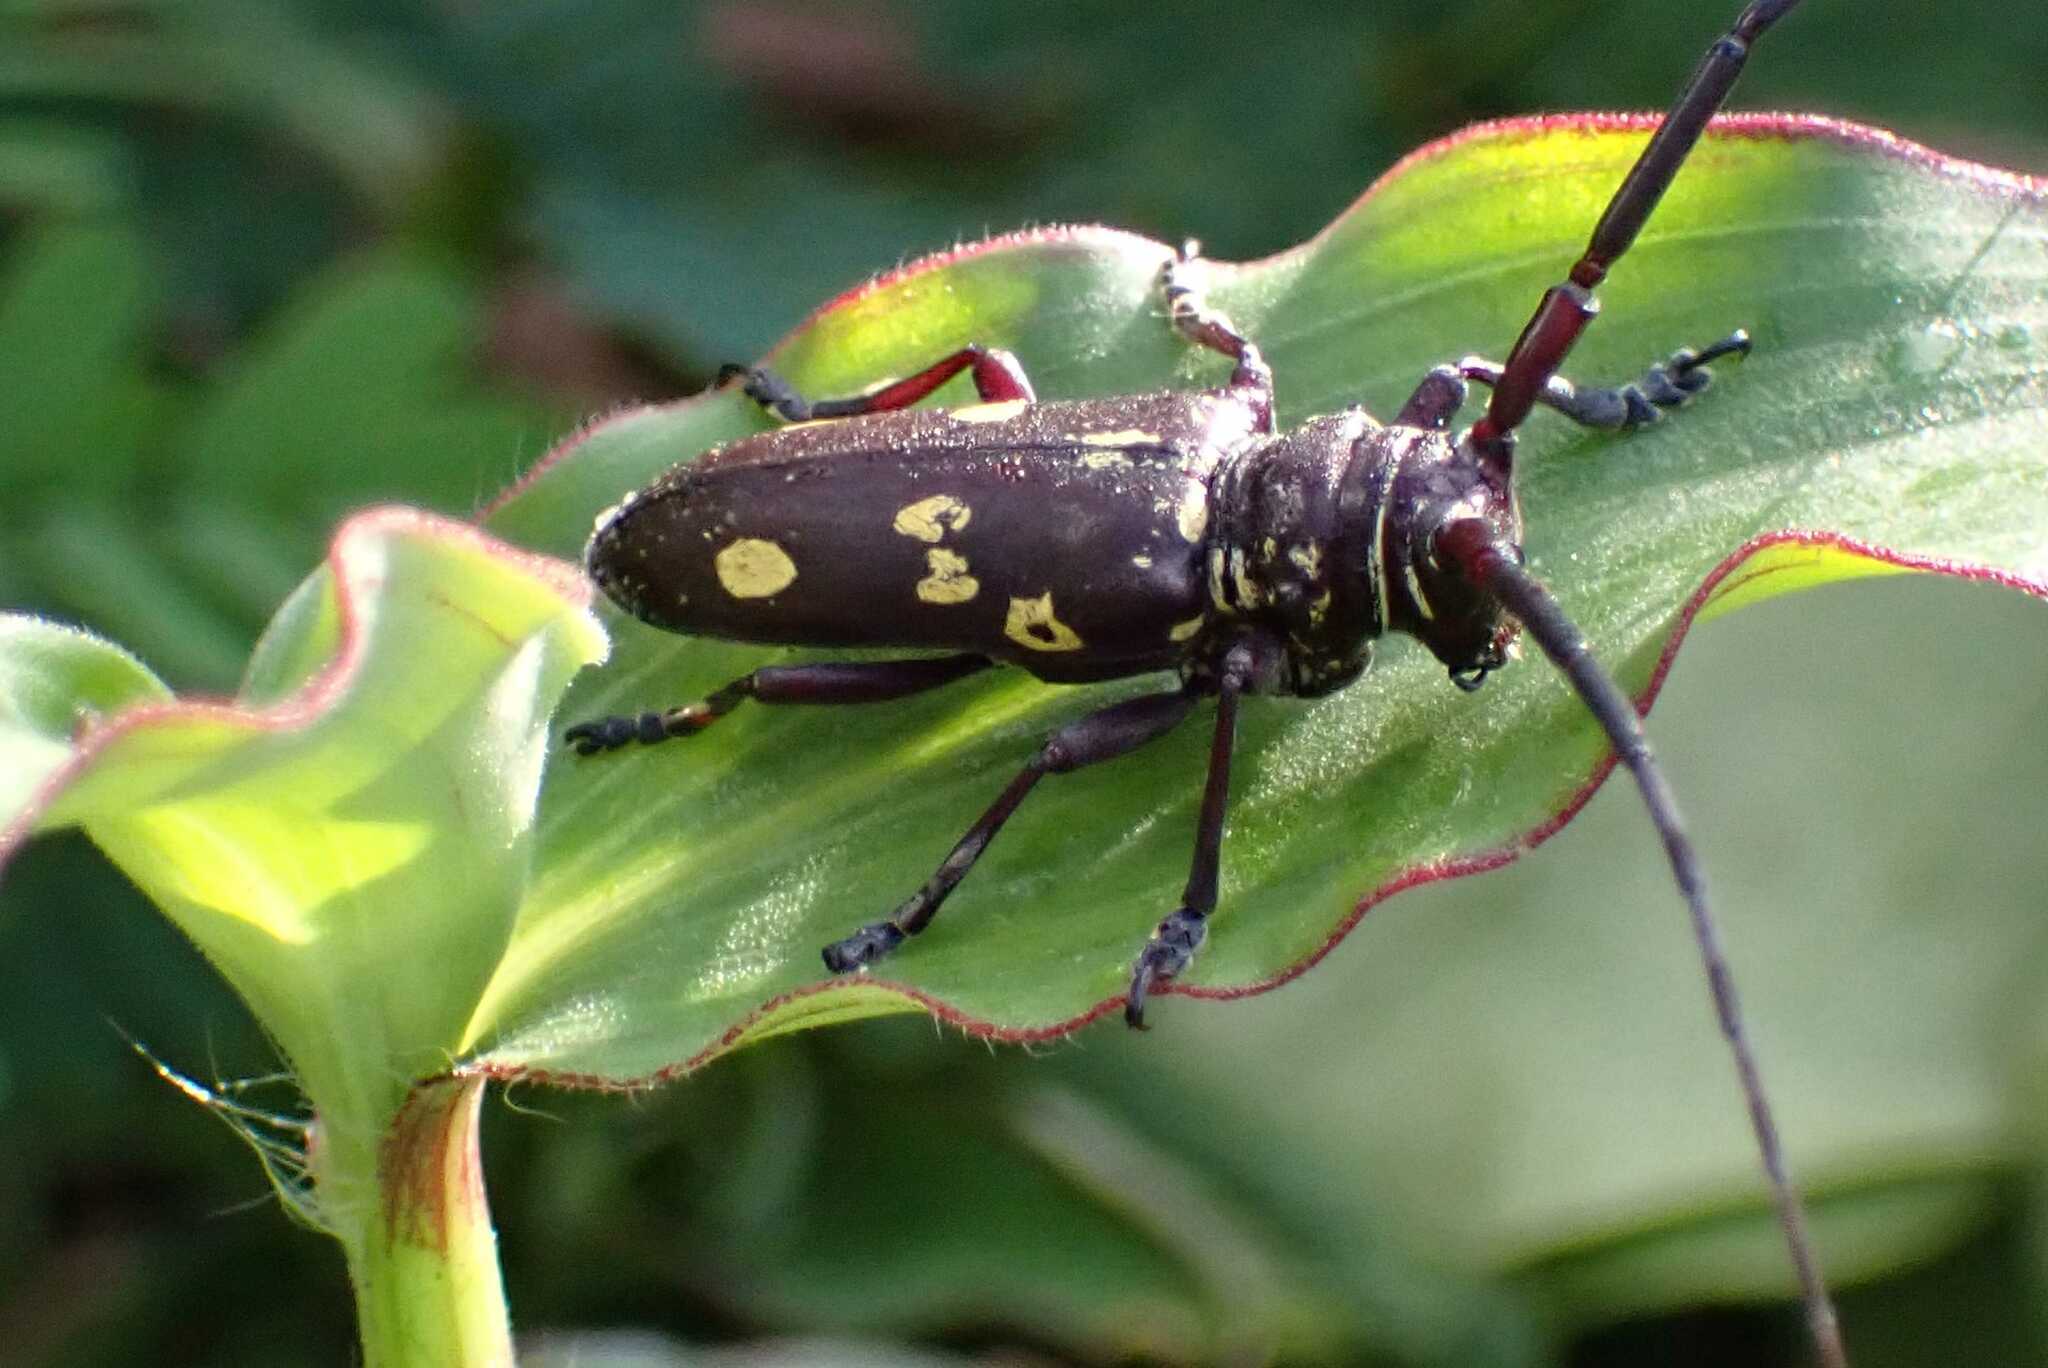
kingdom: Animalia
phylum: Arthropoda
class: Insecta
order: Coleoptera
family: Cerambycidae
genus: Prosopocera
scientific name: Prosopocera pascoei
